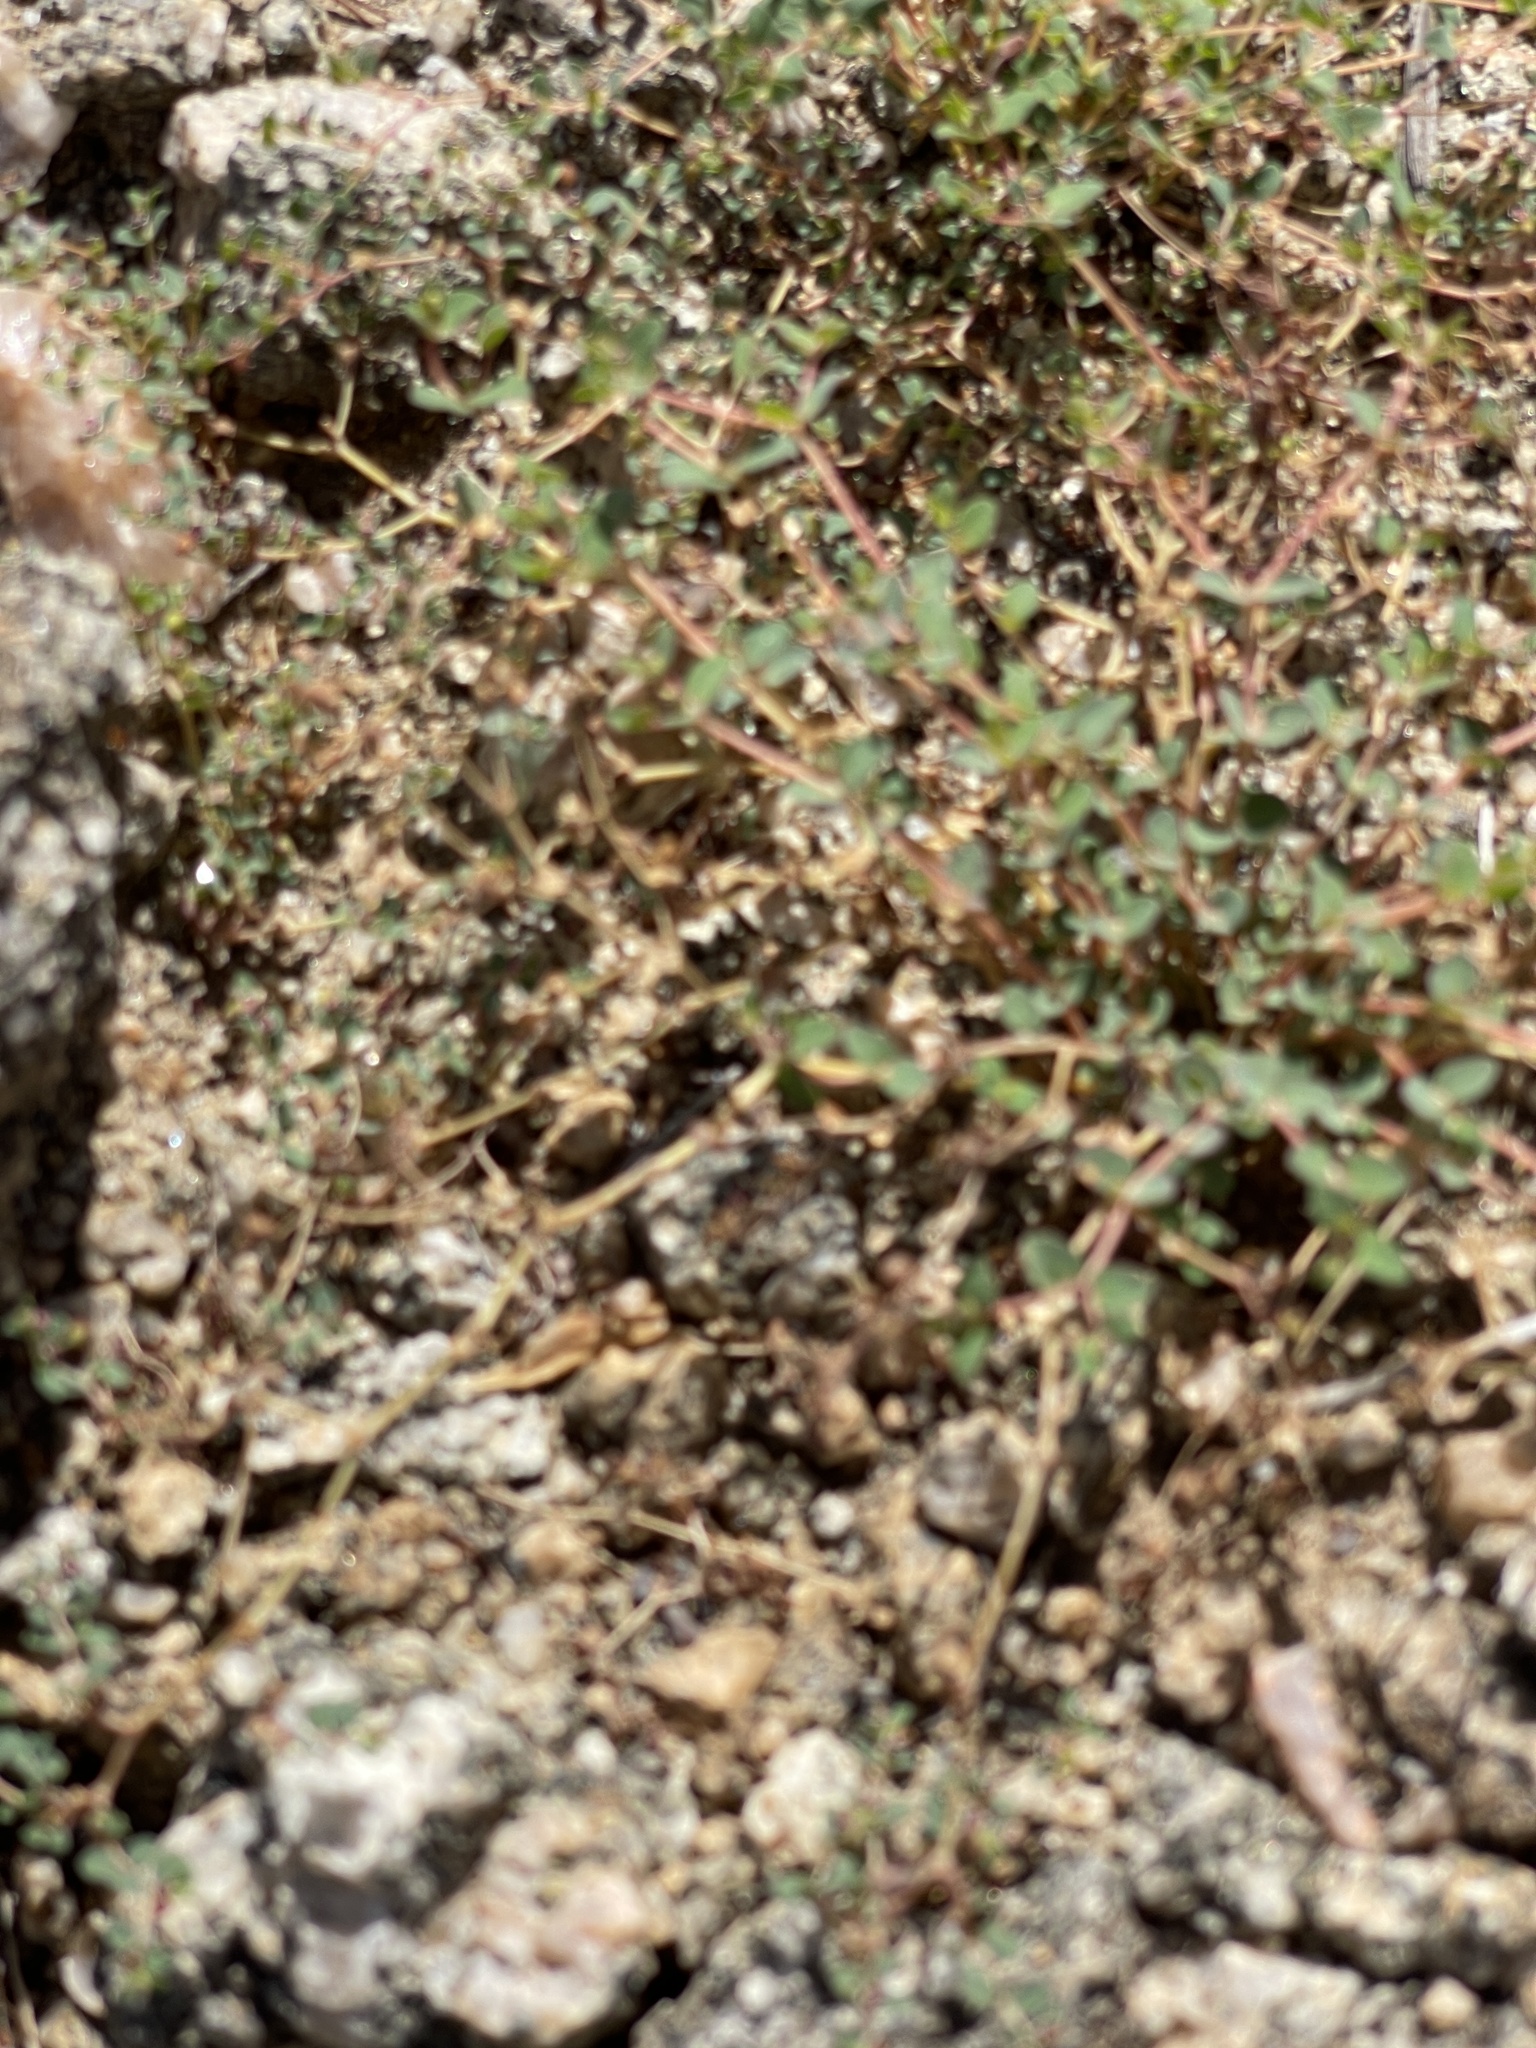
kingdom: Plantae
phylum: Tracheophyta
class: Magnoliopsida
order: Malpighiales
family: Euphorbiaceae
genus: Euphorbia
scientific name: Euphorbia polycarpa
